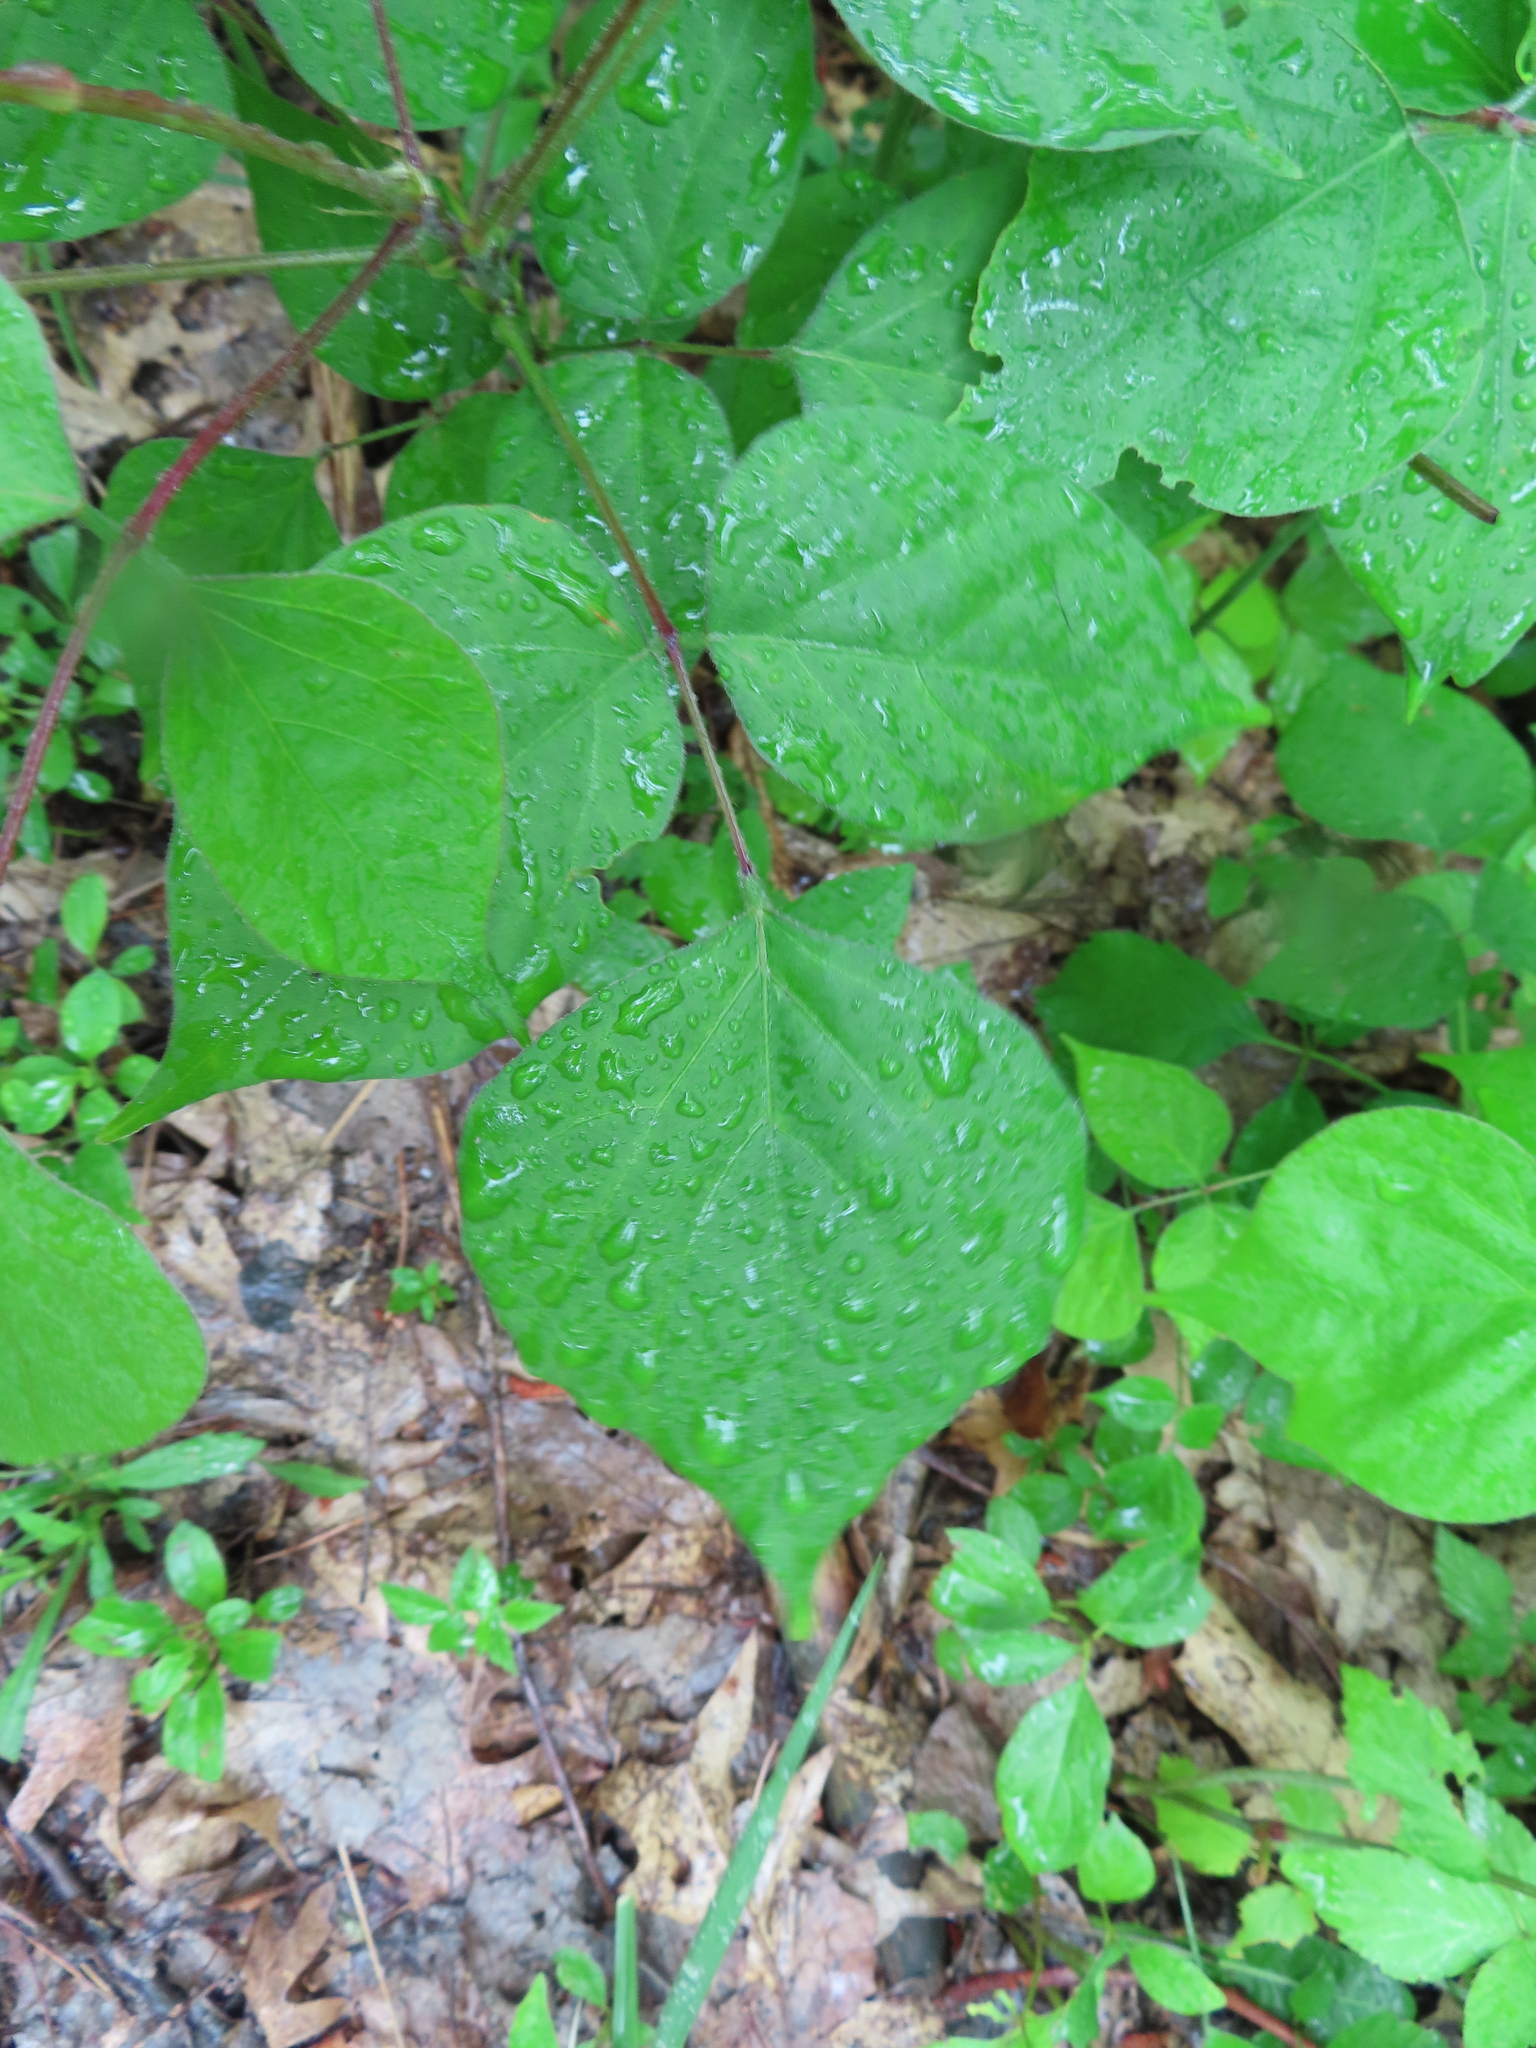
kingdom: Plantae
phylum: Tracheophyta
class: Magnoliopsida
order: Fabales
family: Fabaceae
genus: Hylodesmum
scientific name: Hylodesmum glutinosum
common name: Clustered-leaved tick-trefoil
